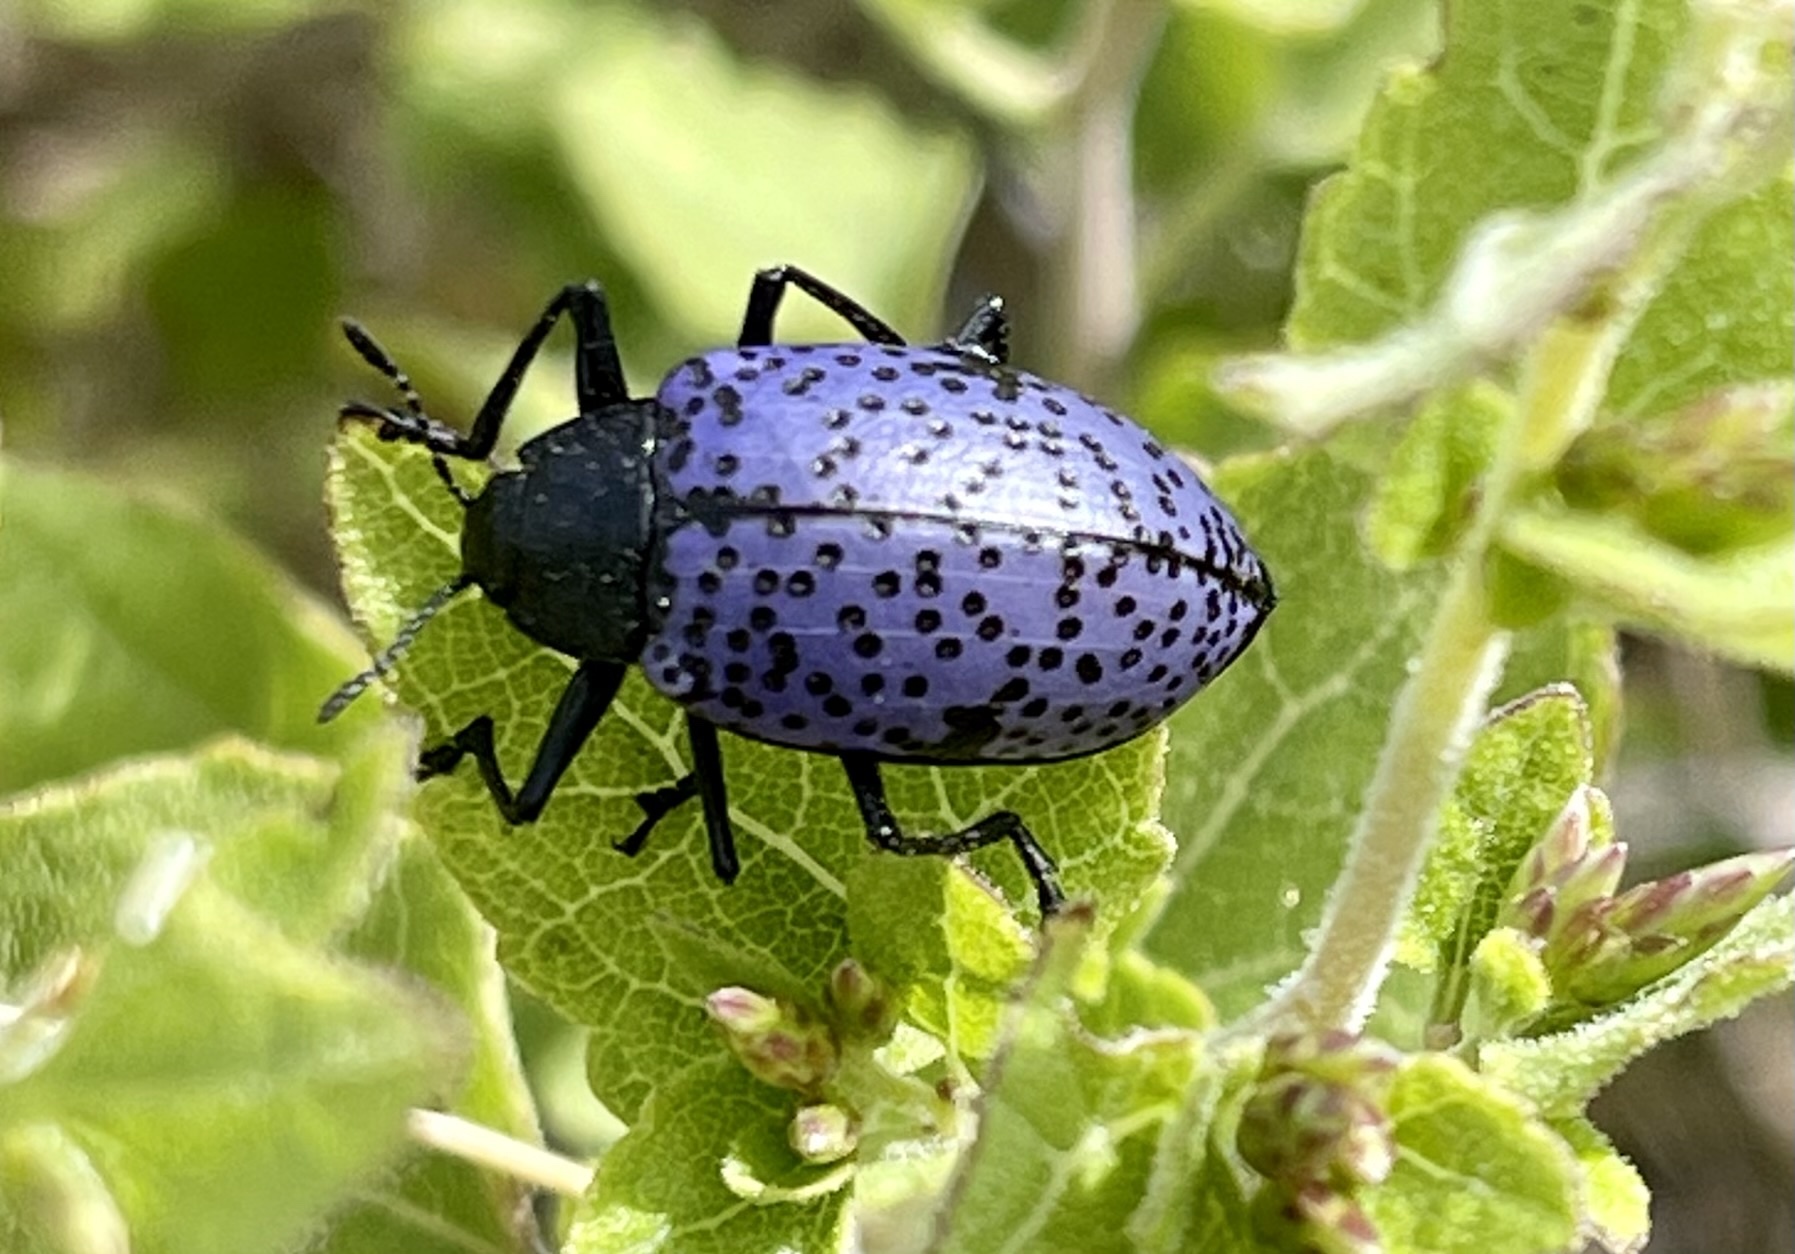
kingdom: Animalia
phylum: Arthropoda
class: Insecta
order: Coleoptera
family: Erotylidae
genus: Gibbifer
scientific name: Gibbifer californicus
